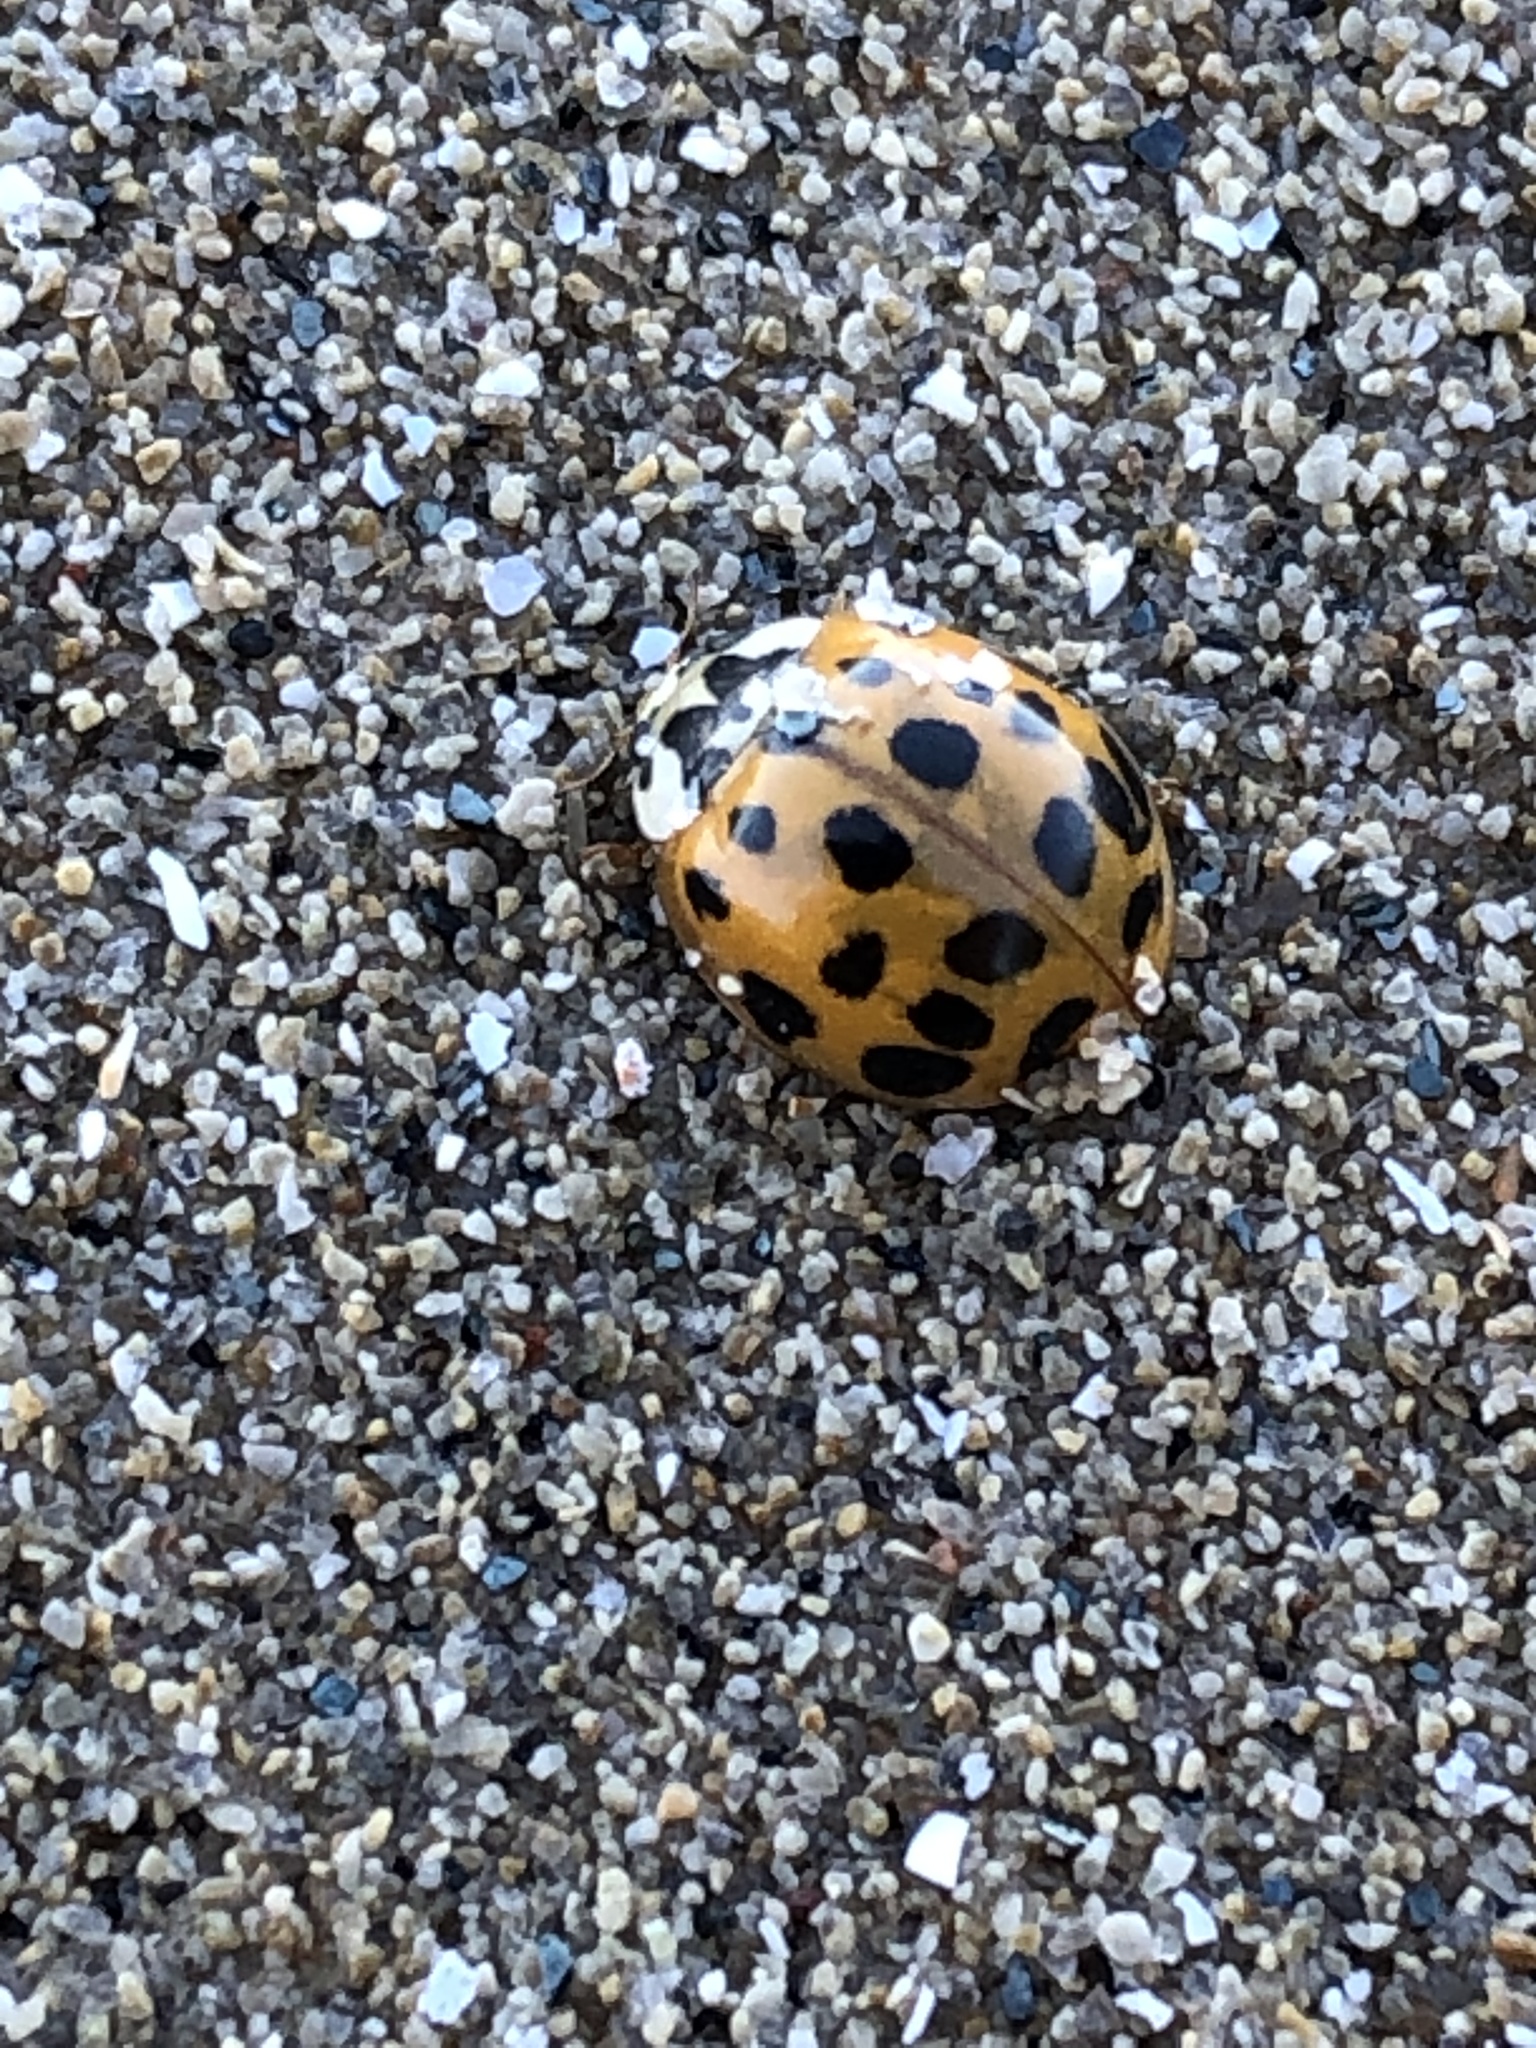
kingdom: Animalia
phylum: Arthropoda
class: Insecta
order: Coleoptera
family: Coccinellidae
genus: Harmonia
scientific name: Harmonia axyridis
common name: Harlequin ladybird
